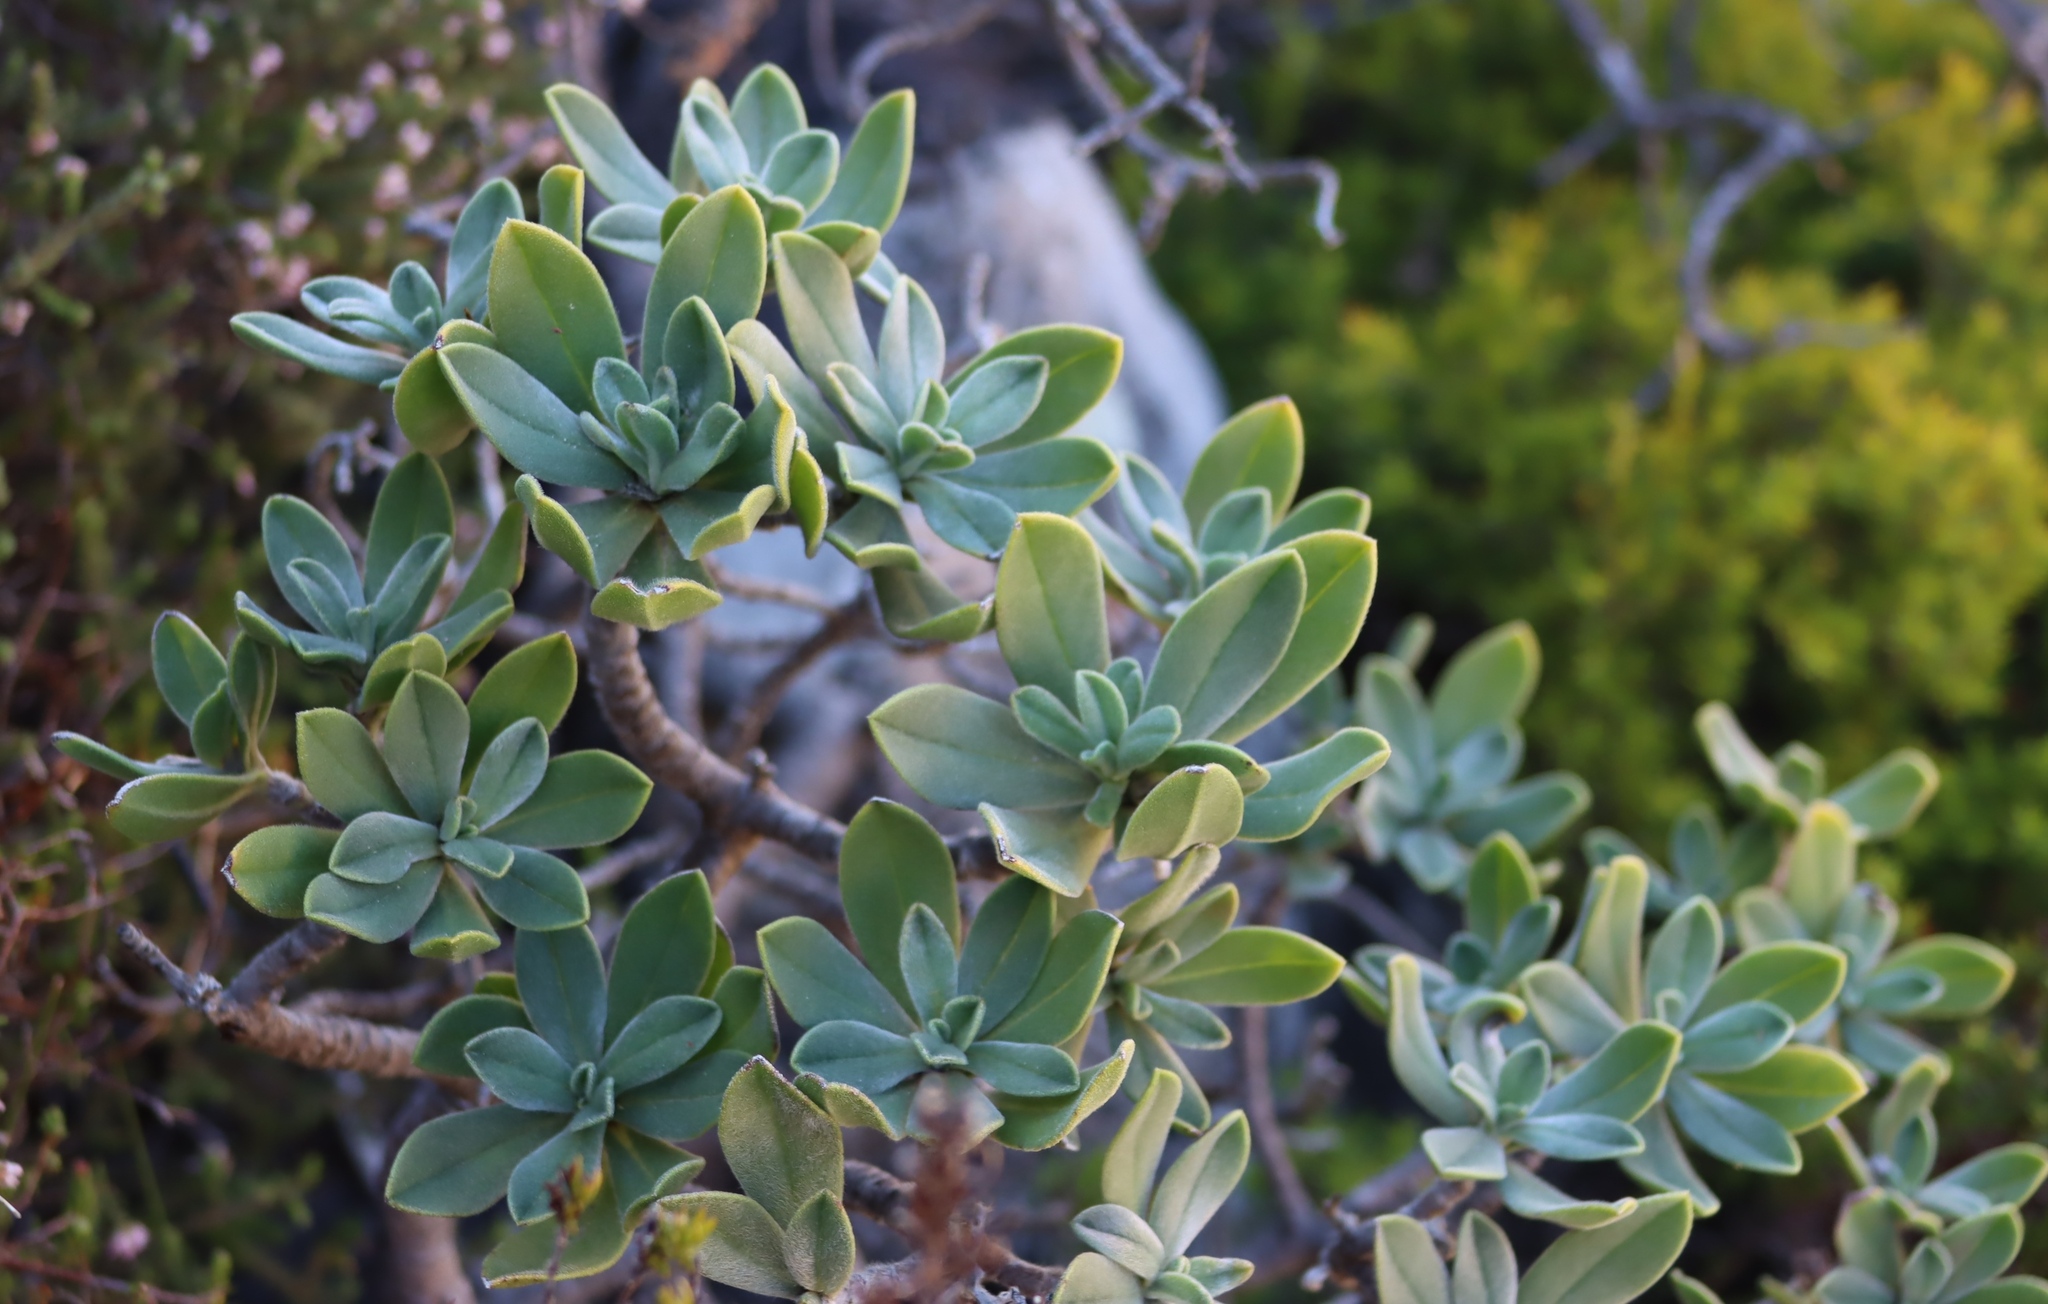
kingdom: Plantae
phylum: Tracheophyta
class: Magnoliopsida
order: Boraginales
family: Boraginaceae
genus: Lobostemon
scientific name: Lobostemon montanus
